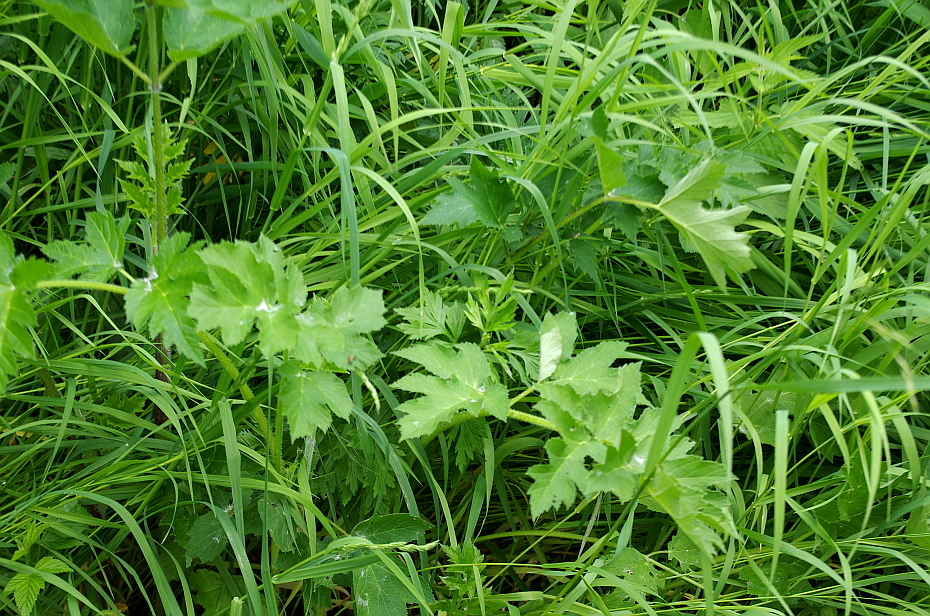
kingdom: Plantae
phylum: Tracheophyta
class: Magnoliopsida
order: Apiales
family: Apiaceae
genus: Heracleum
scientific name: Heracleum sphondylium
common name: Hogweed
